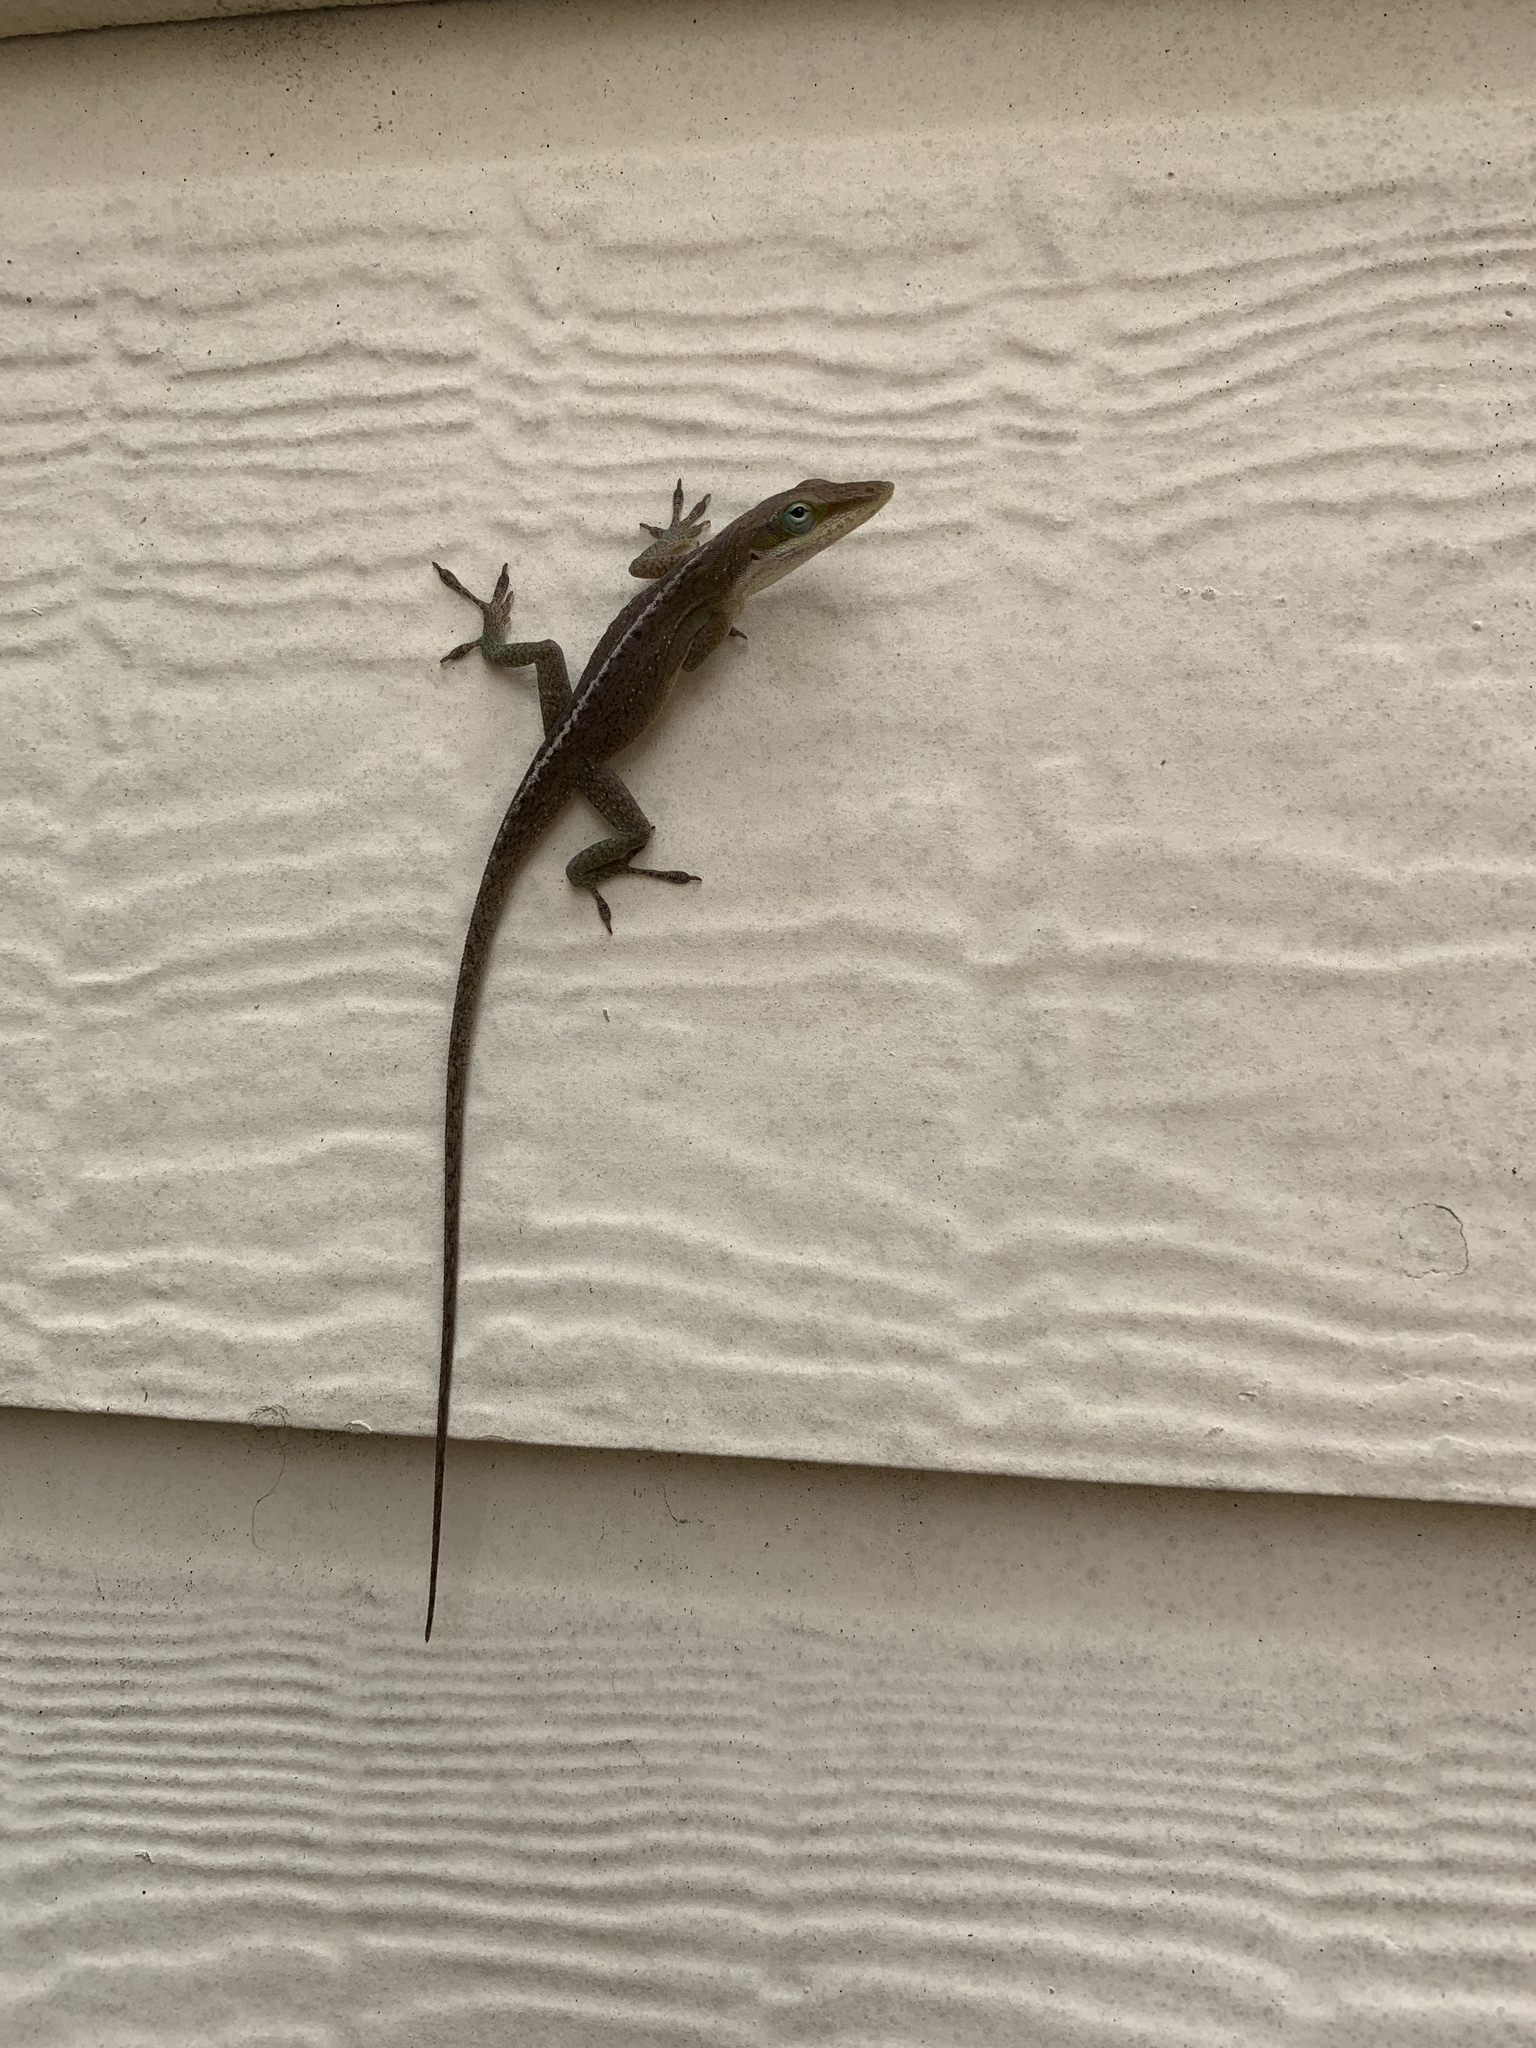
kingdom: Animalia
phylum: Chordata
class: Squamata
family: Dactyloidae
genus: Anolis
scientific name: Anolis carolinensis
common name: Green anole
